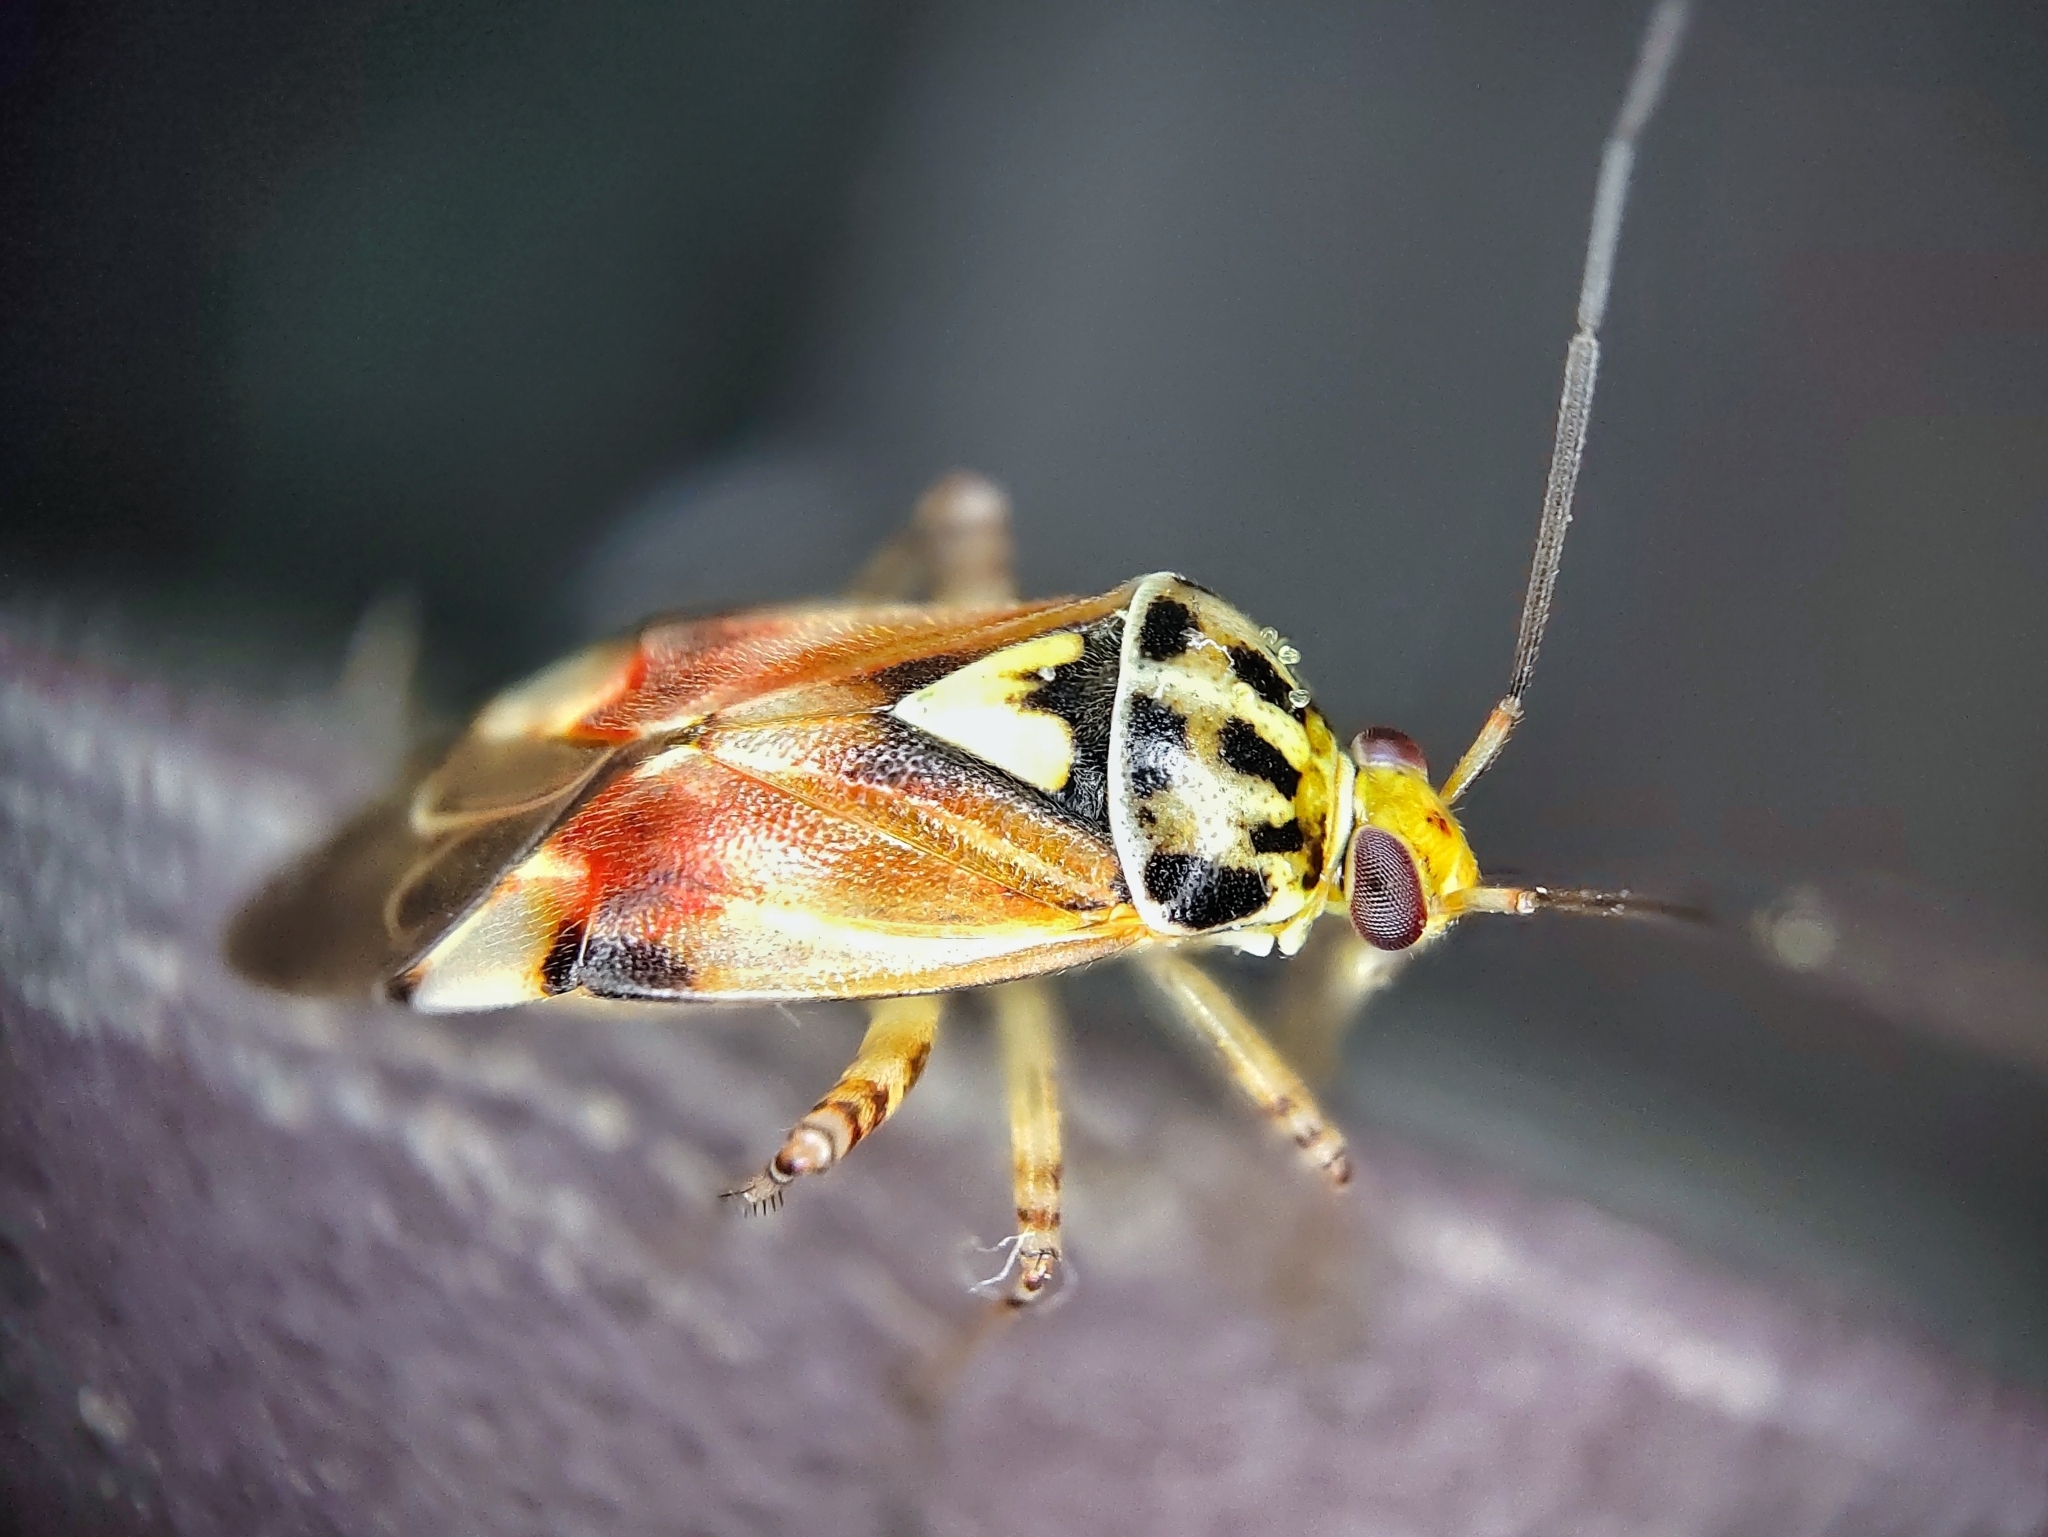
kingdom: Animalia
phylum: Arthropoda
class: Insecta
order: Hemiptera
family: Miridae
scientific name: Miridae
